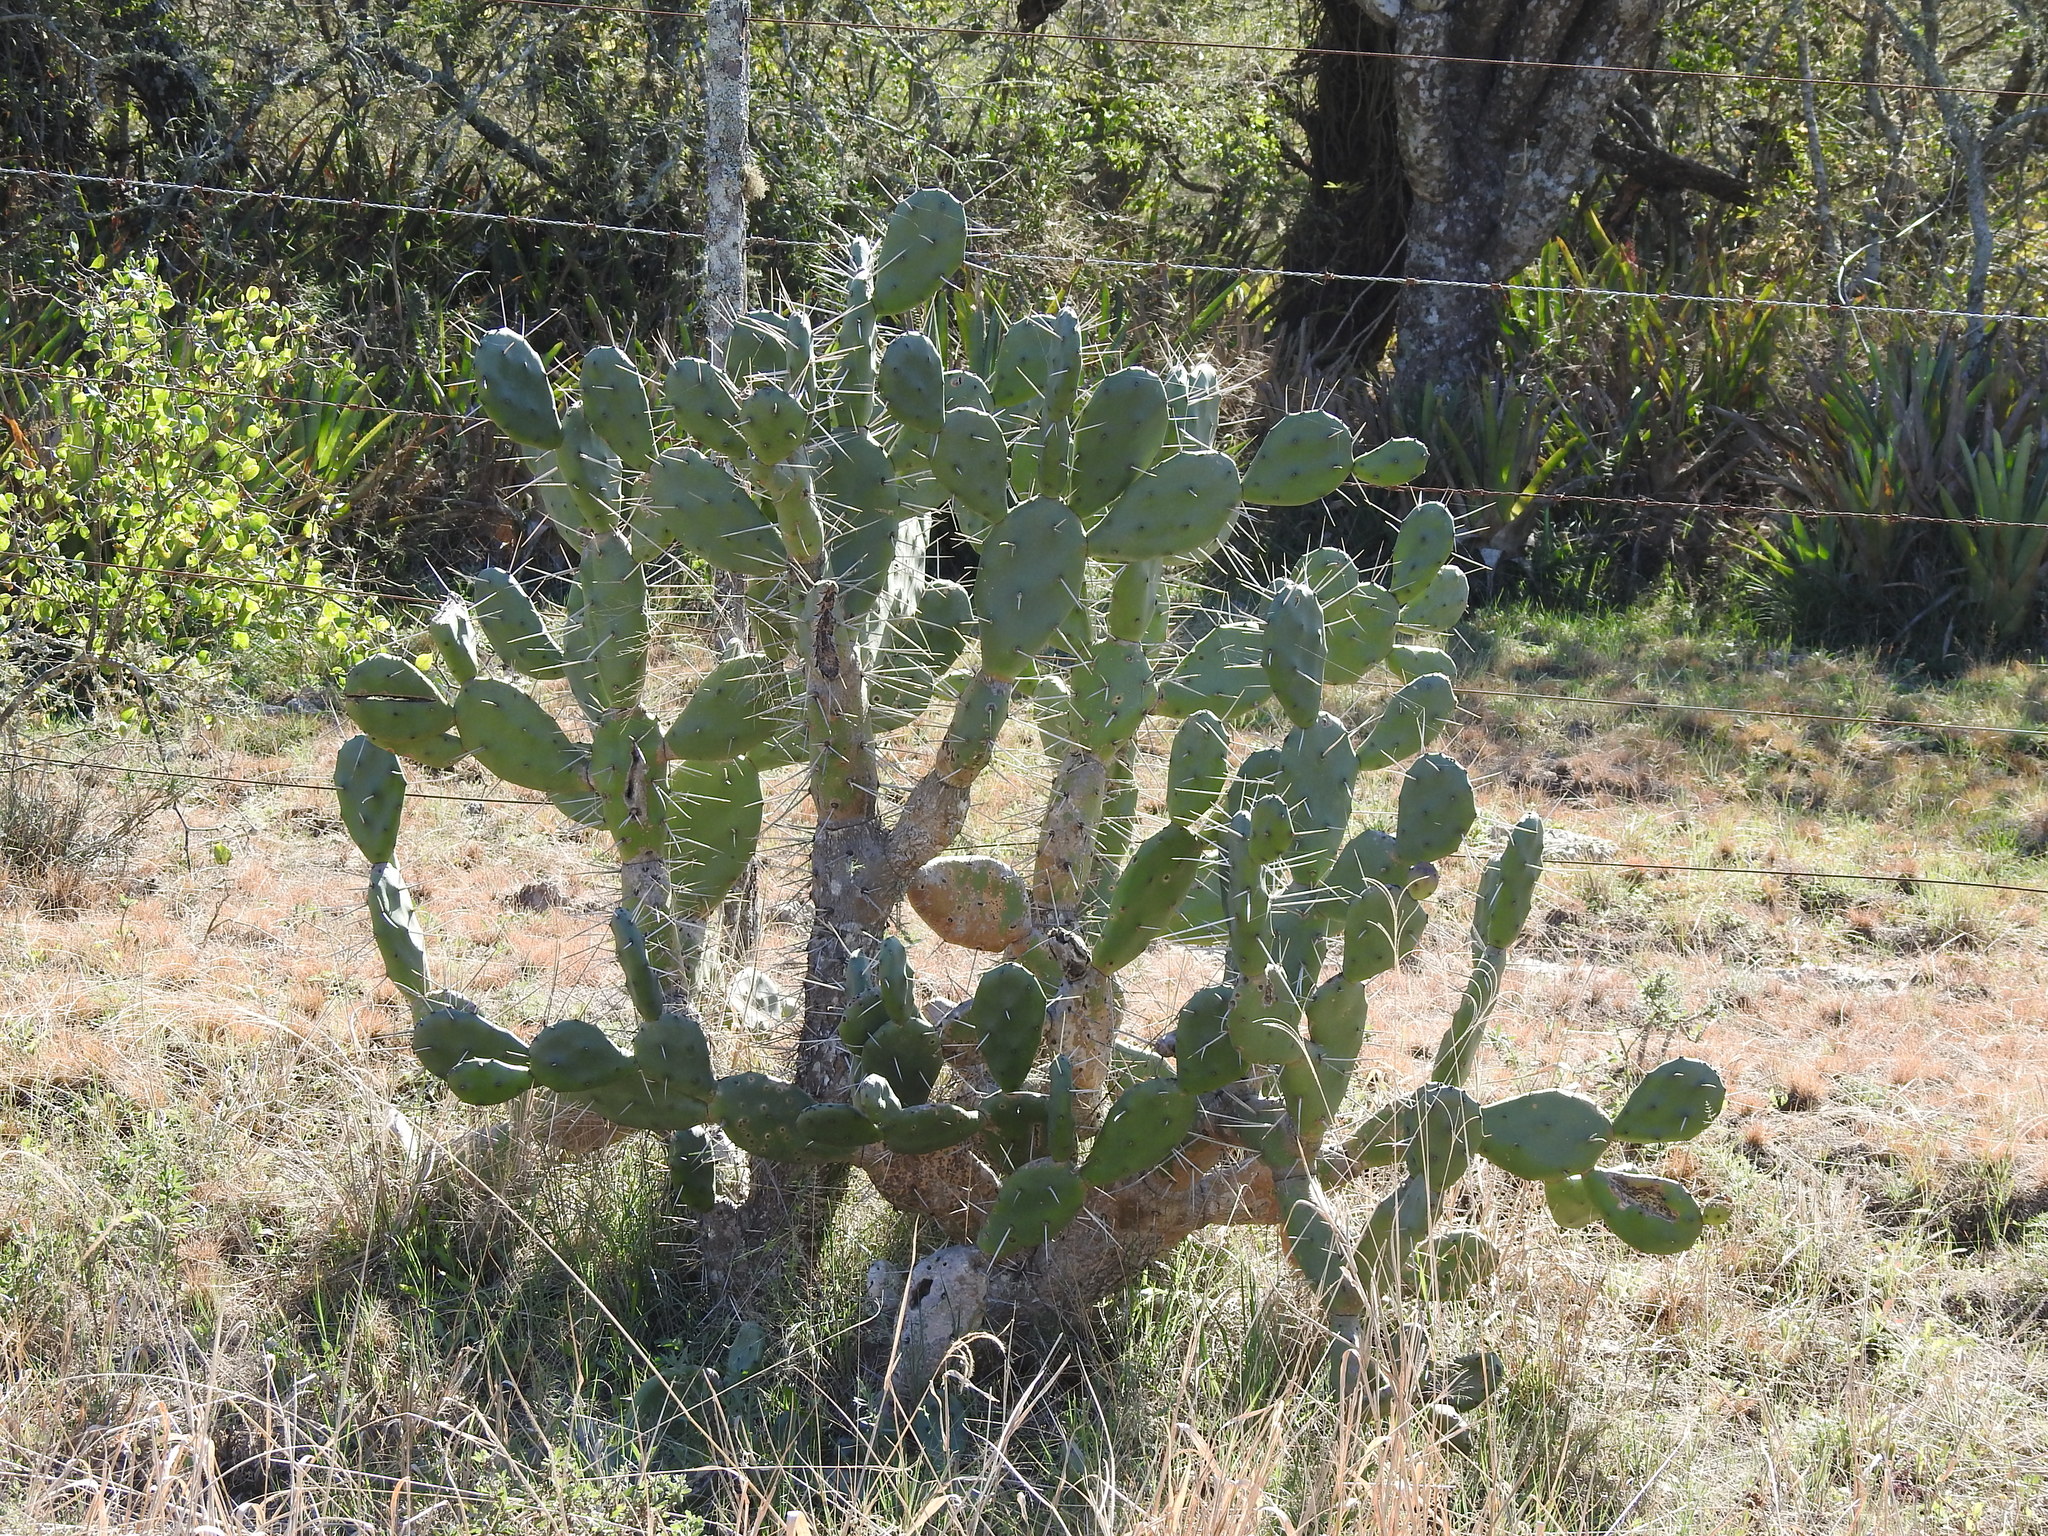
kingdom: Plantae
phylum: Tracheophyta
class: Magnoliopsida
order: Caryophyllales
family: Cactaceae
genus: Opuntia
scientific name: Opuntia elata
